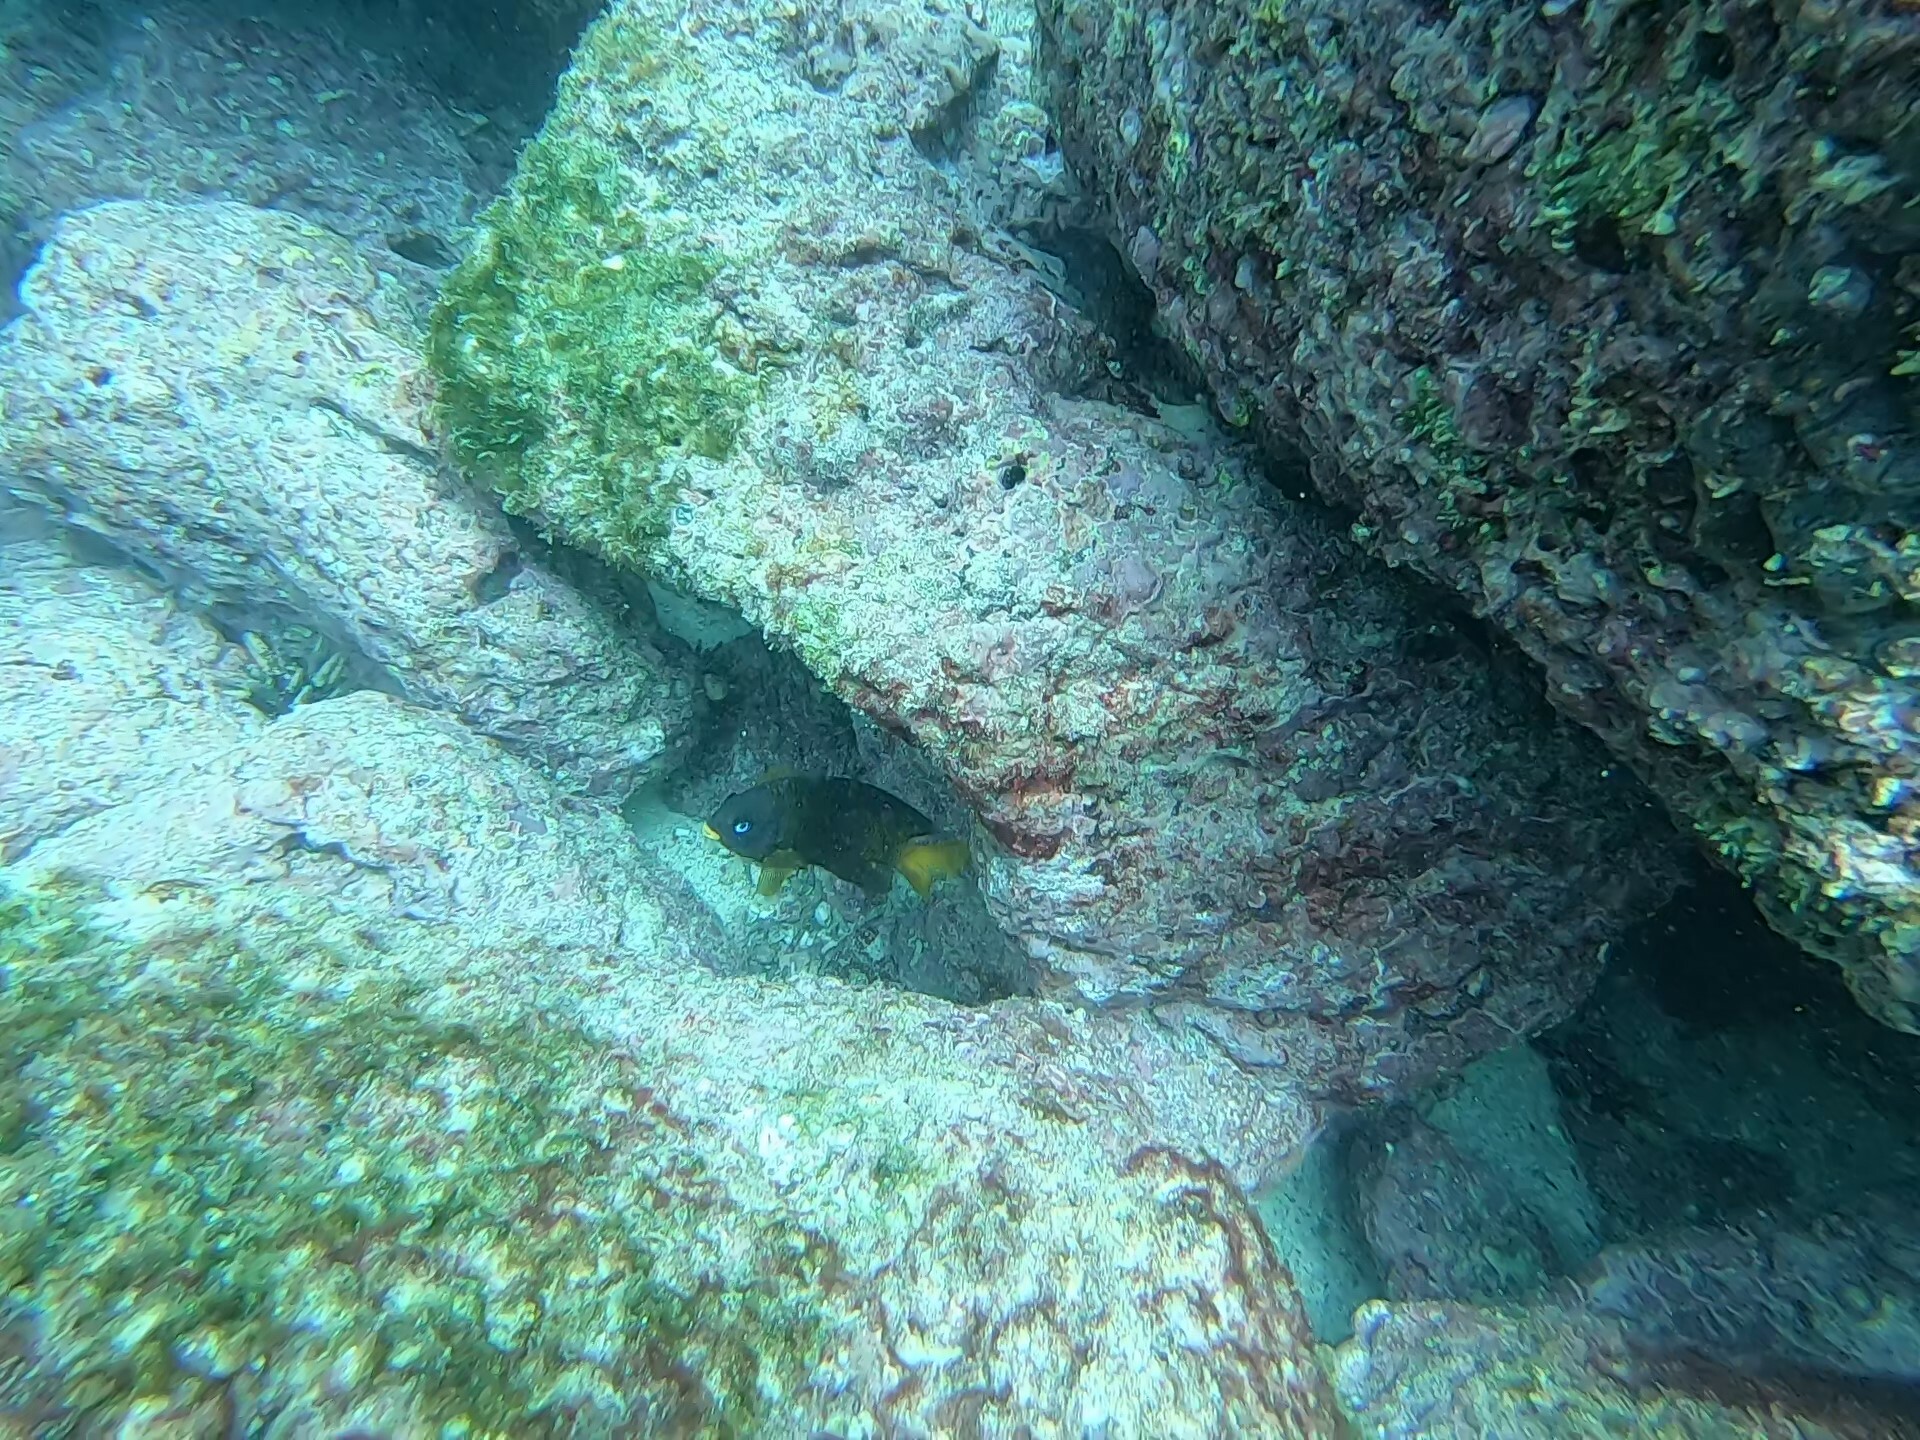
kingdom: Animalia
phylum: Chordata
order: Perciformes
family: Pomacentridae
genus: Stegastes
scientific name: Stegastes arcifrons
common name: Galapagos gregory
